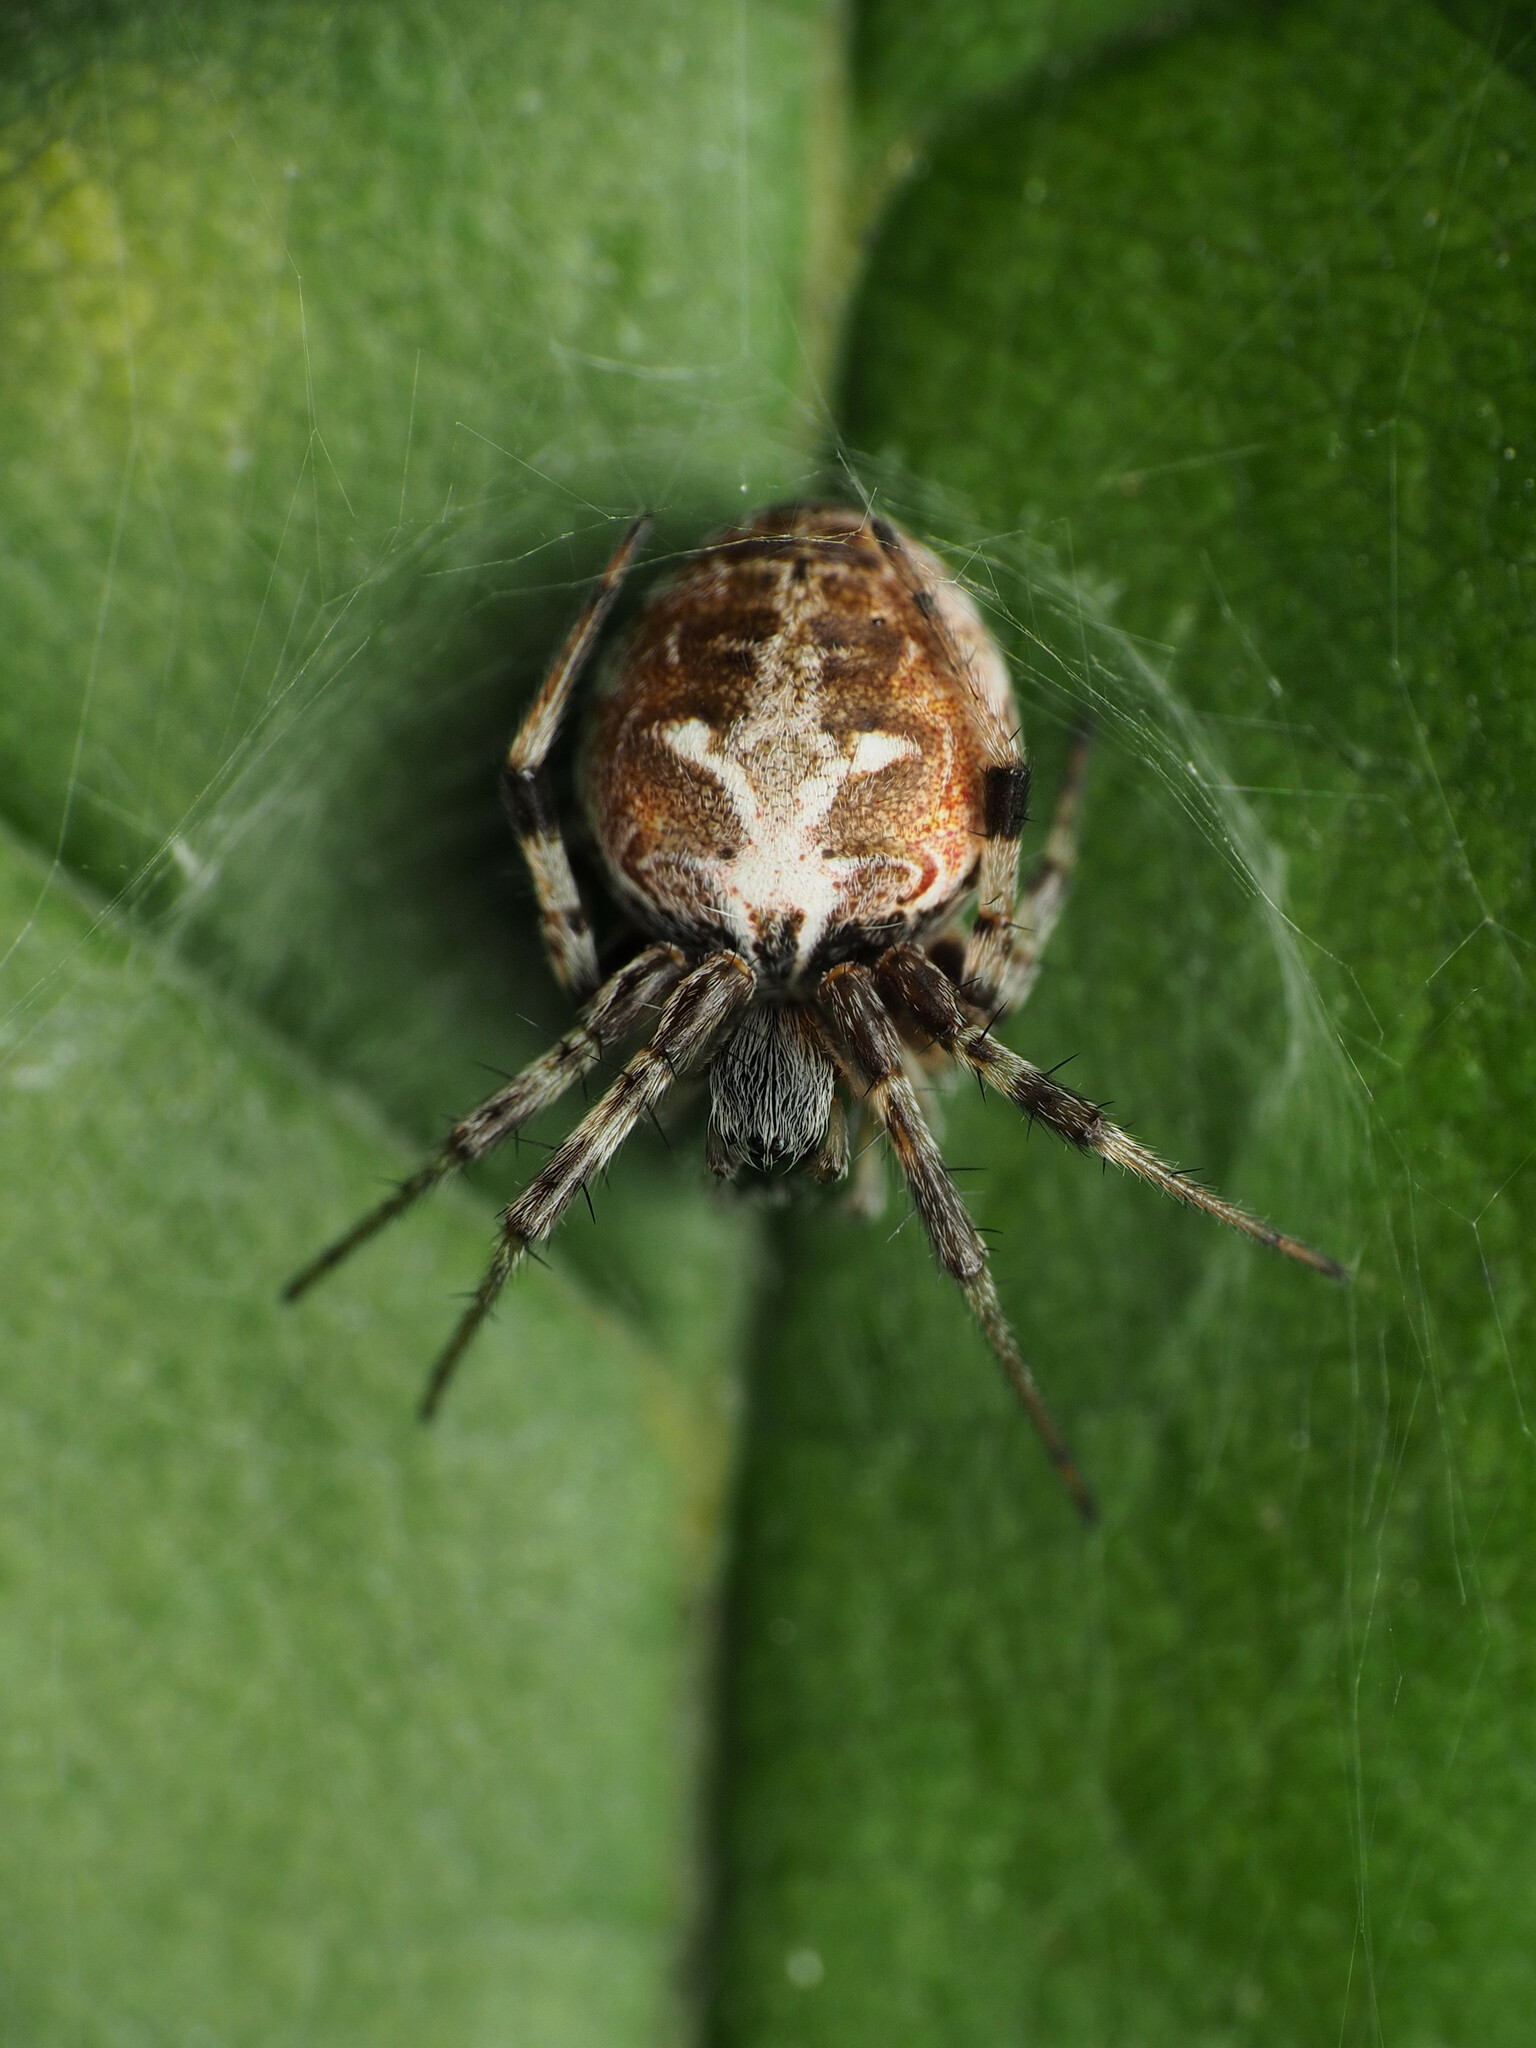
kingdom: Animalia
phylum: Arthropoda
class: Arachnida
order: Araneae
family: Araneidae
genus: Metepeira
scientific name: Metepeira labyrinthea
